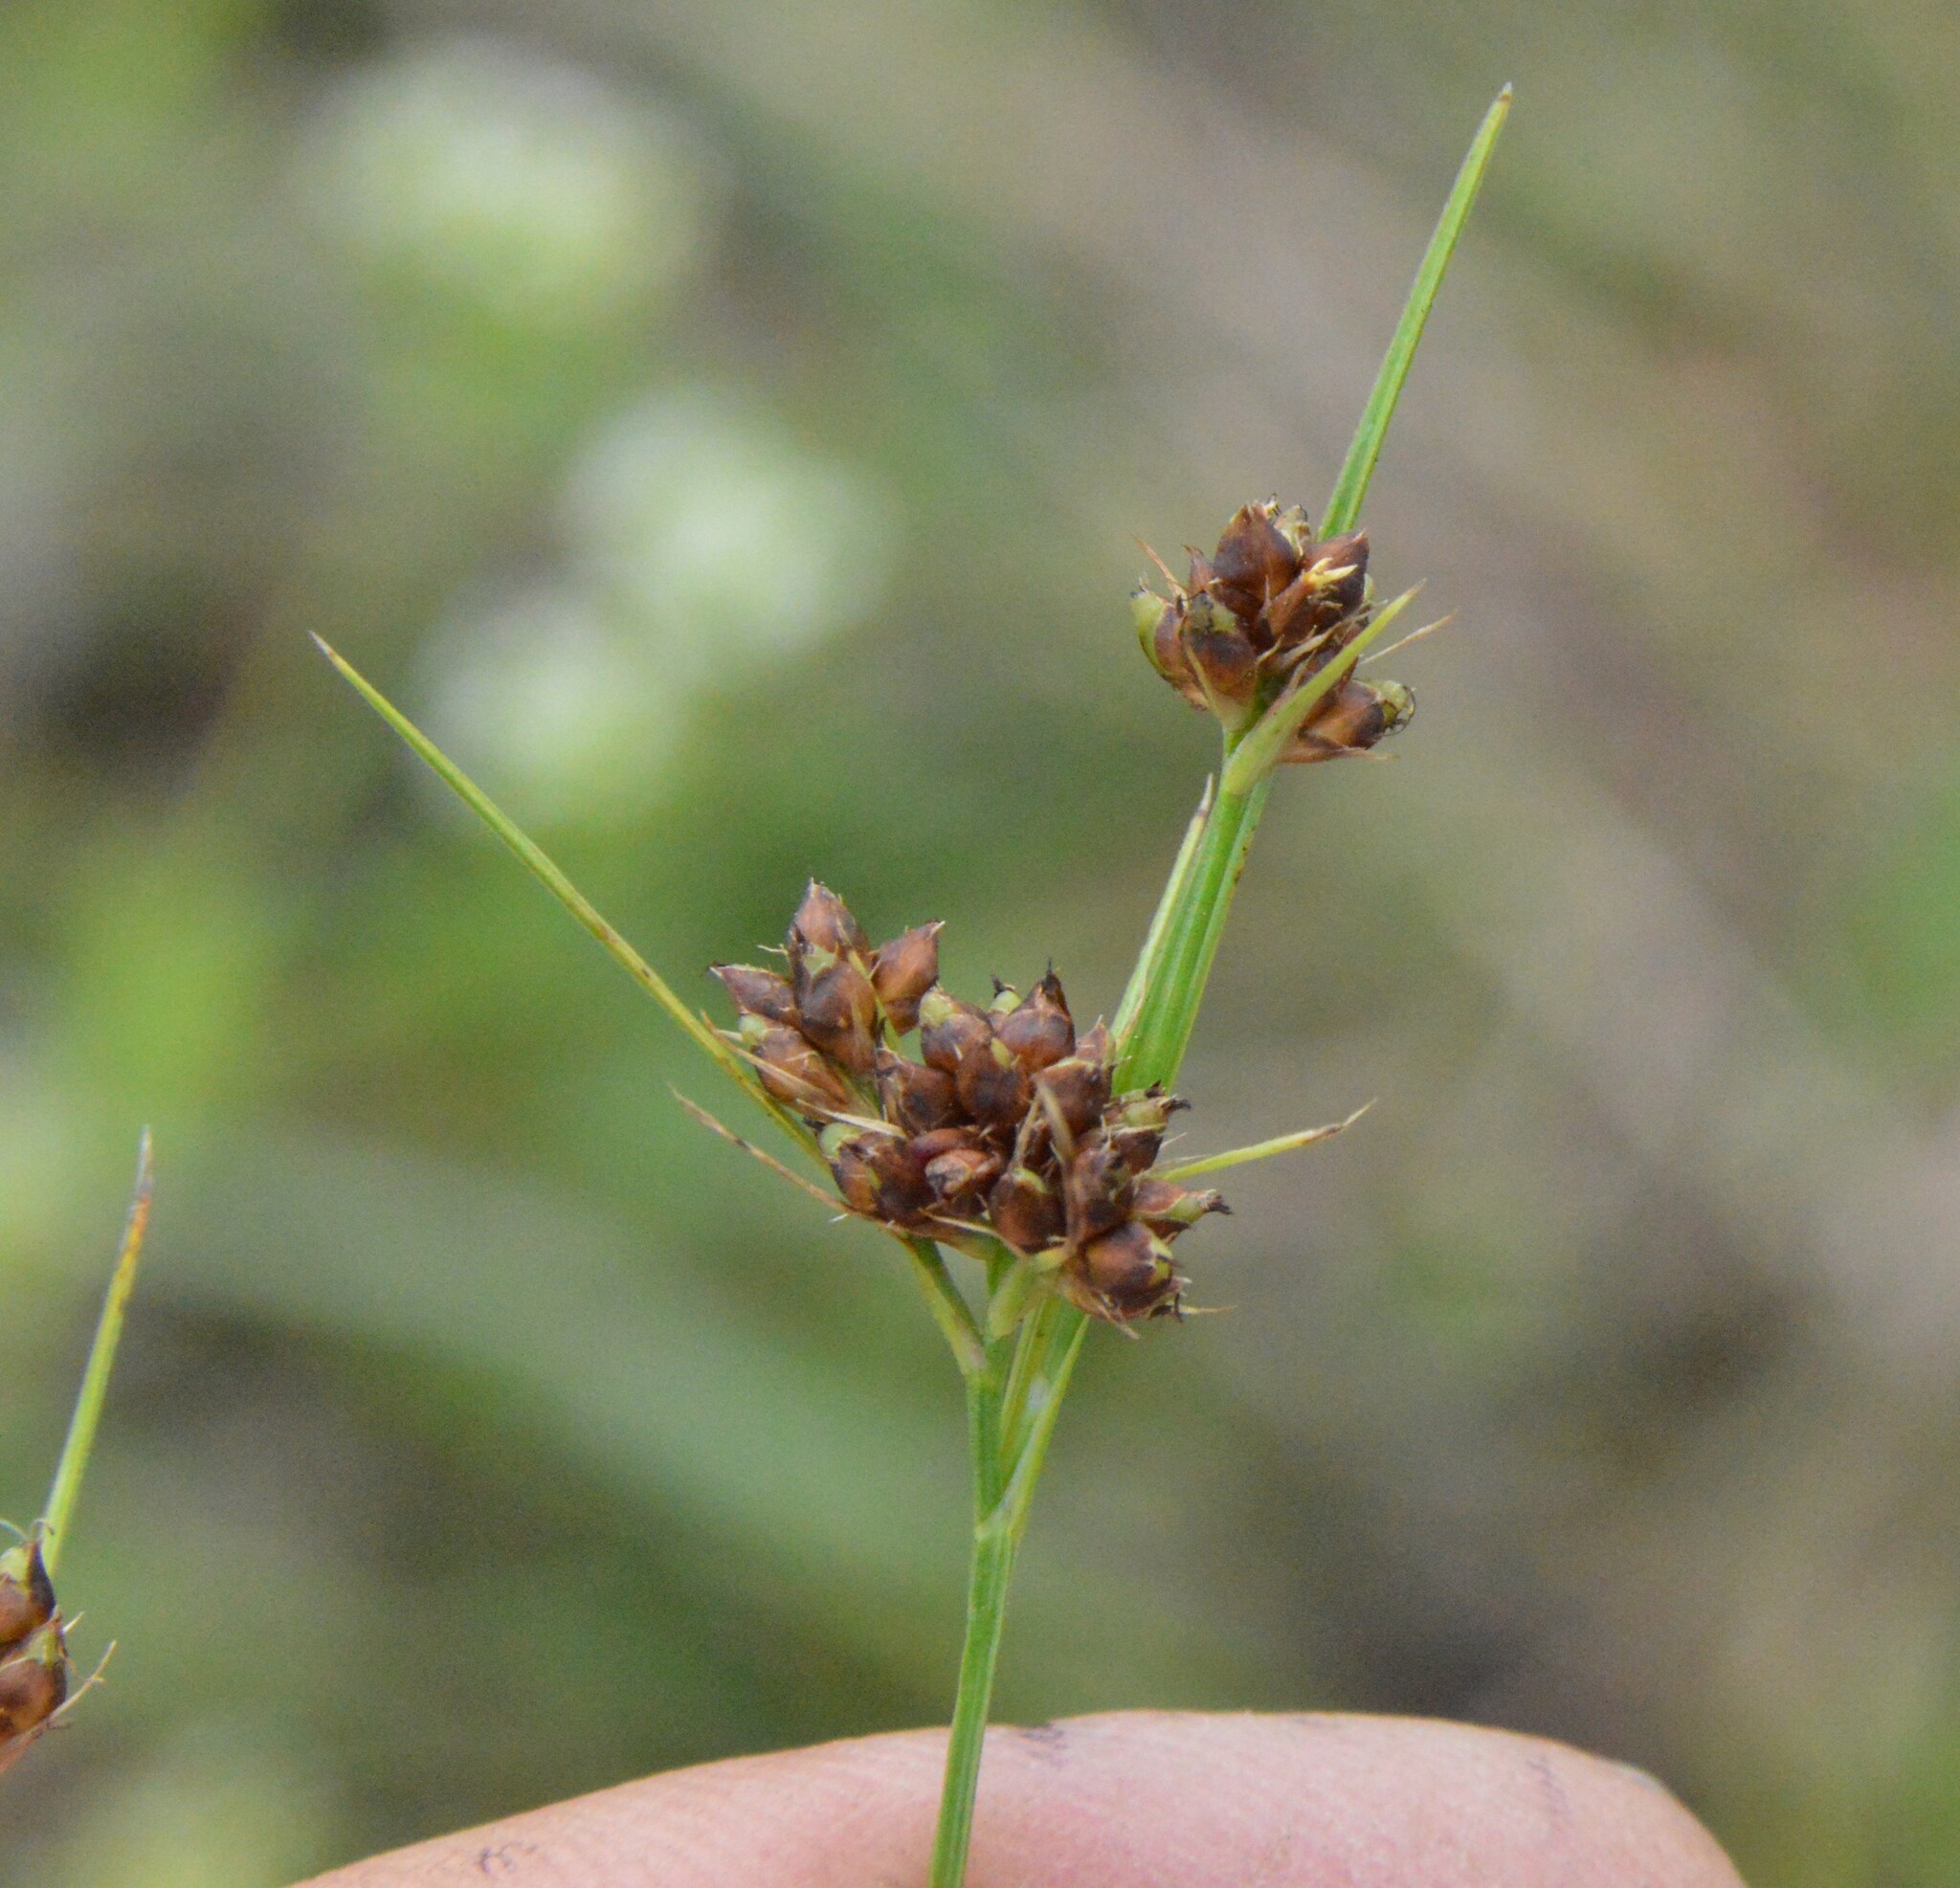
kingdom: Plantae
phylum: Tracheophyta
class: Liliopsida
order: Poales
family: Cyperaceae
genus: Rhynchospora
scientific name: Rhynchospora harveyi
